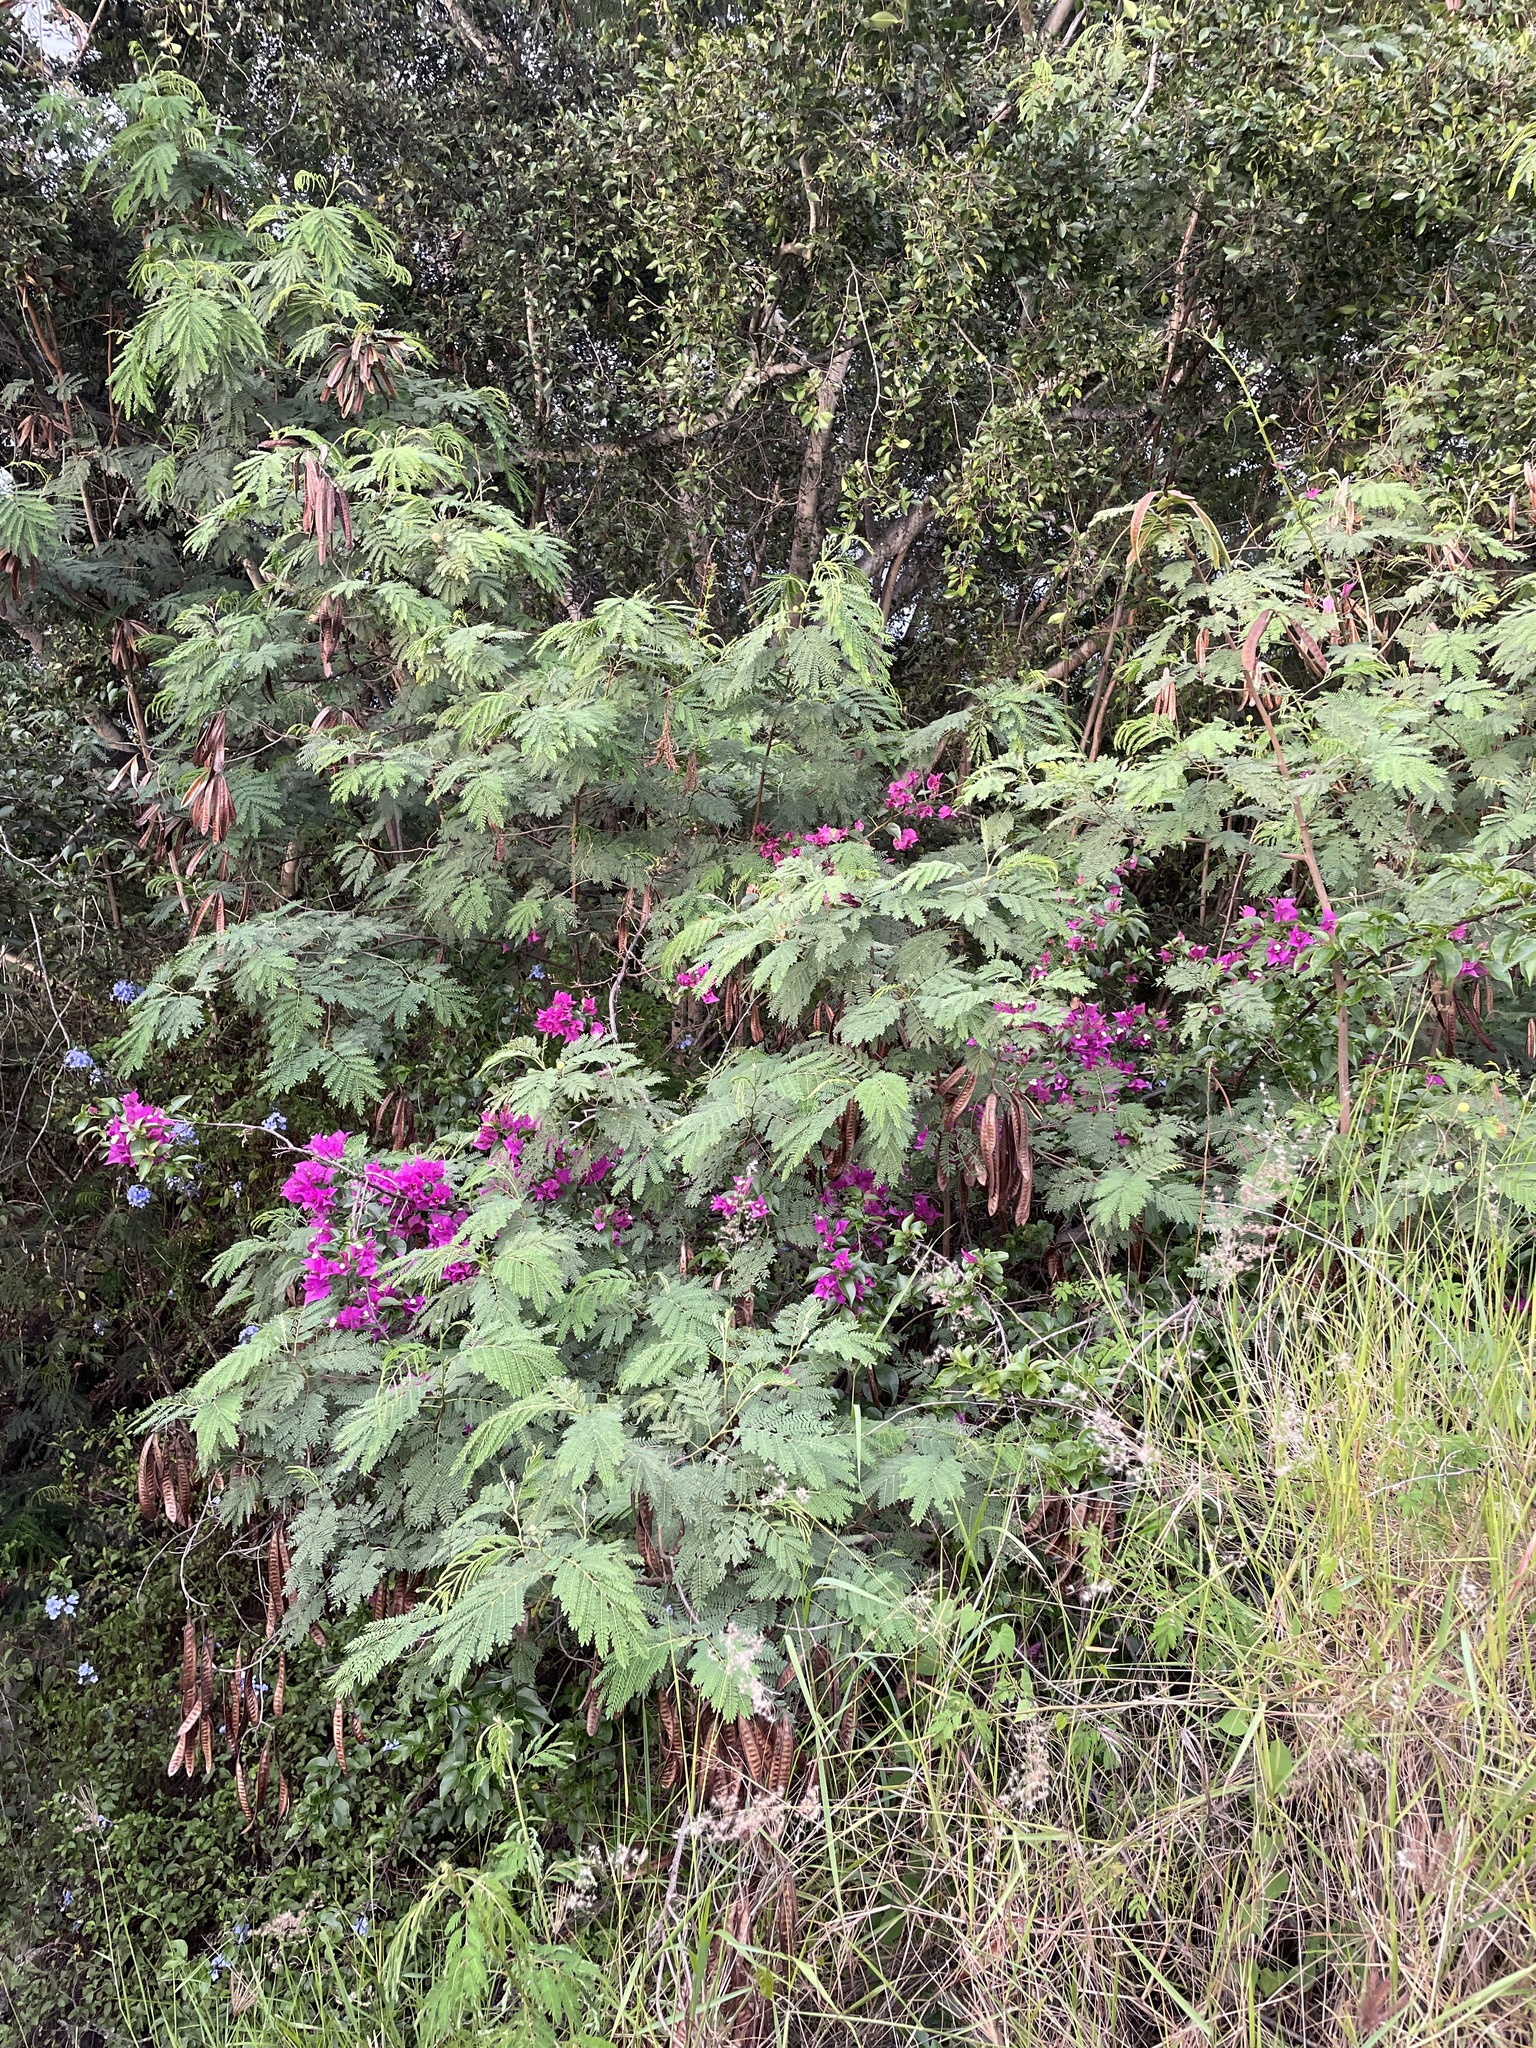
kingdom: Plantae
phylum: Tracheophyta
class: Magnoliopsida
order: Caryophyllales
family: Nyctaginaceae
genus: Bougainvillea
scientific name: Bougainvillea glabra
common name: Paperflower
